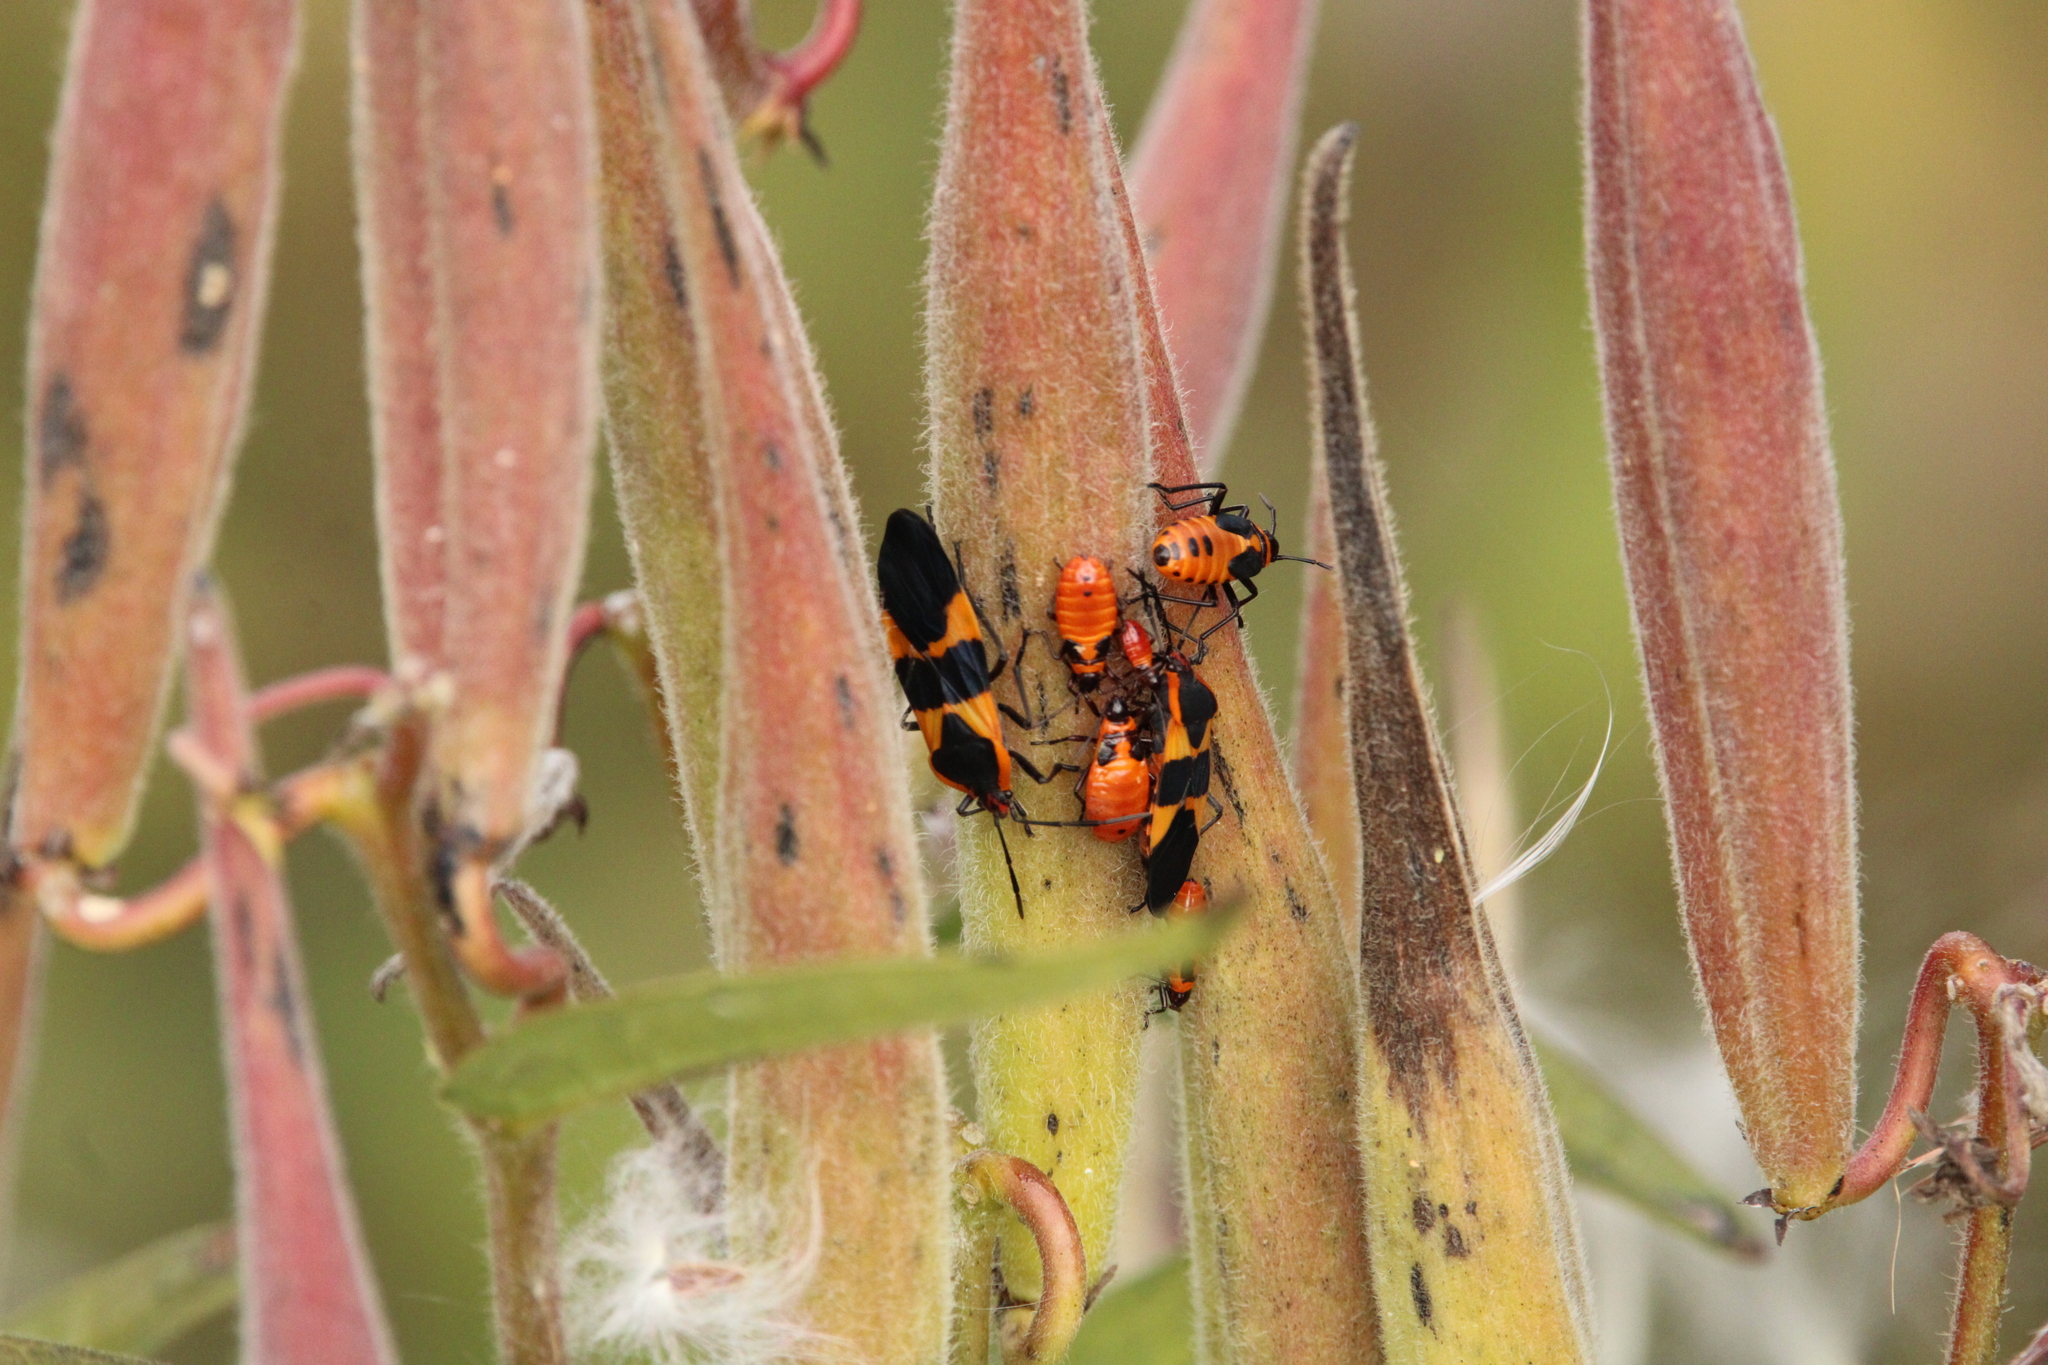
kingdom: Animalia
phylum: Arthropoda
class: Insecta
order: Hemiptera
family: Lygaeidae
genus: Oncopeltus
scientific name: Oncopeltus fasciatus
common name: Large milkweed bug
